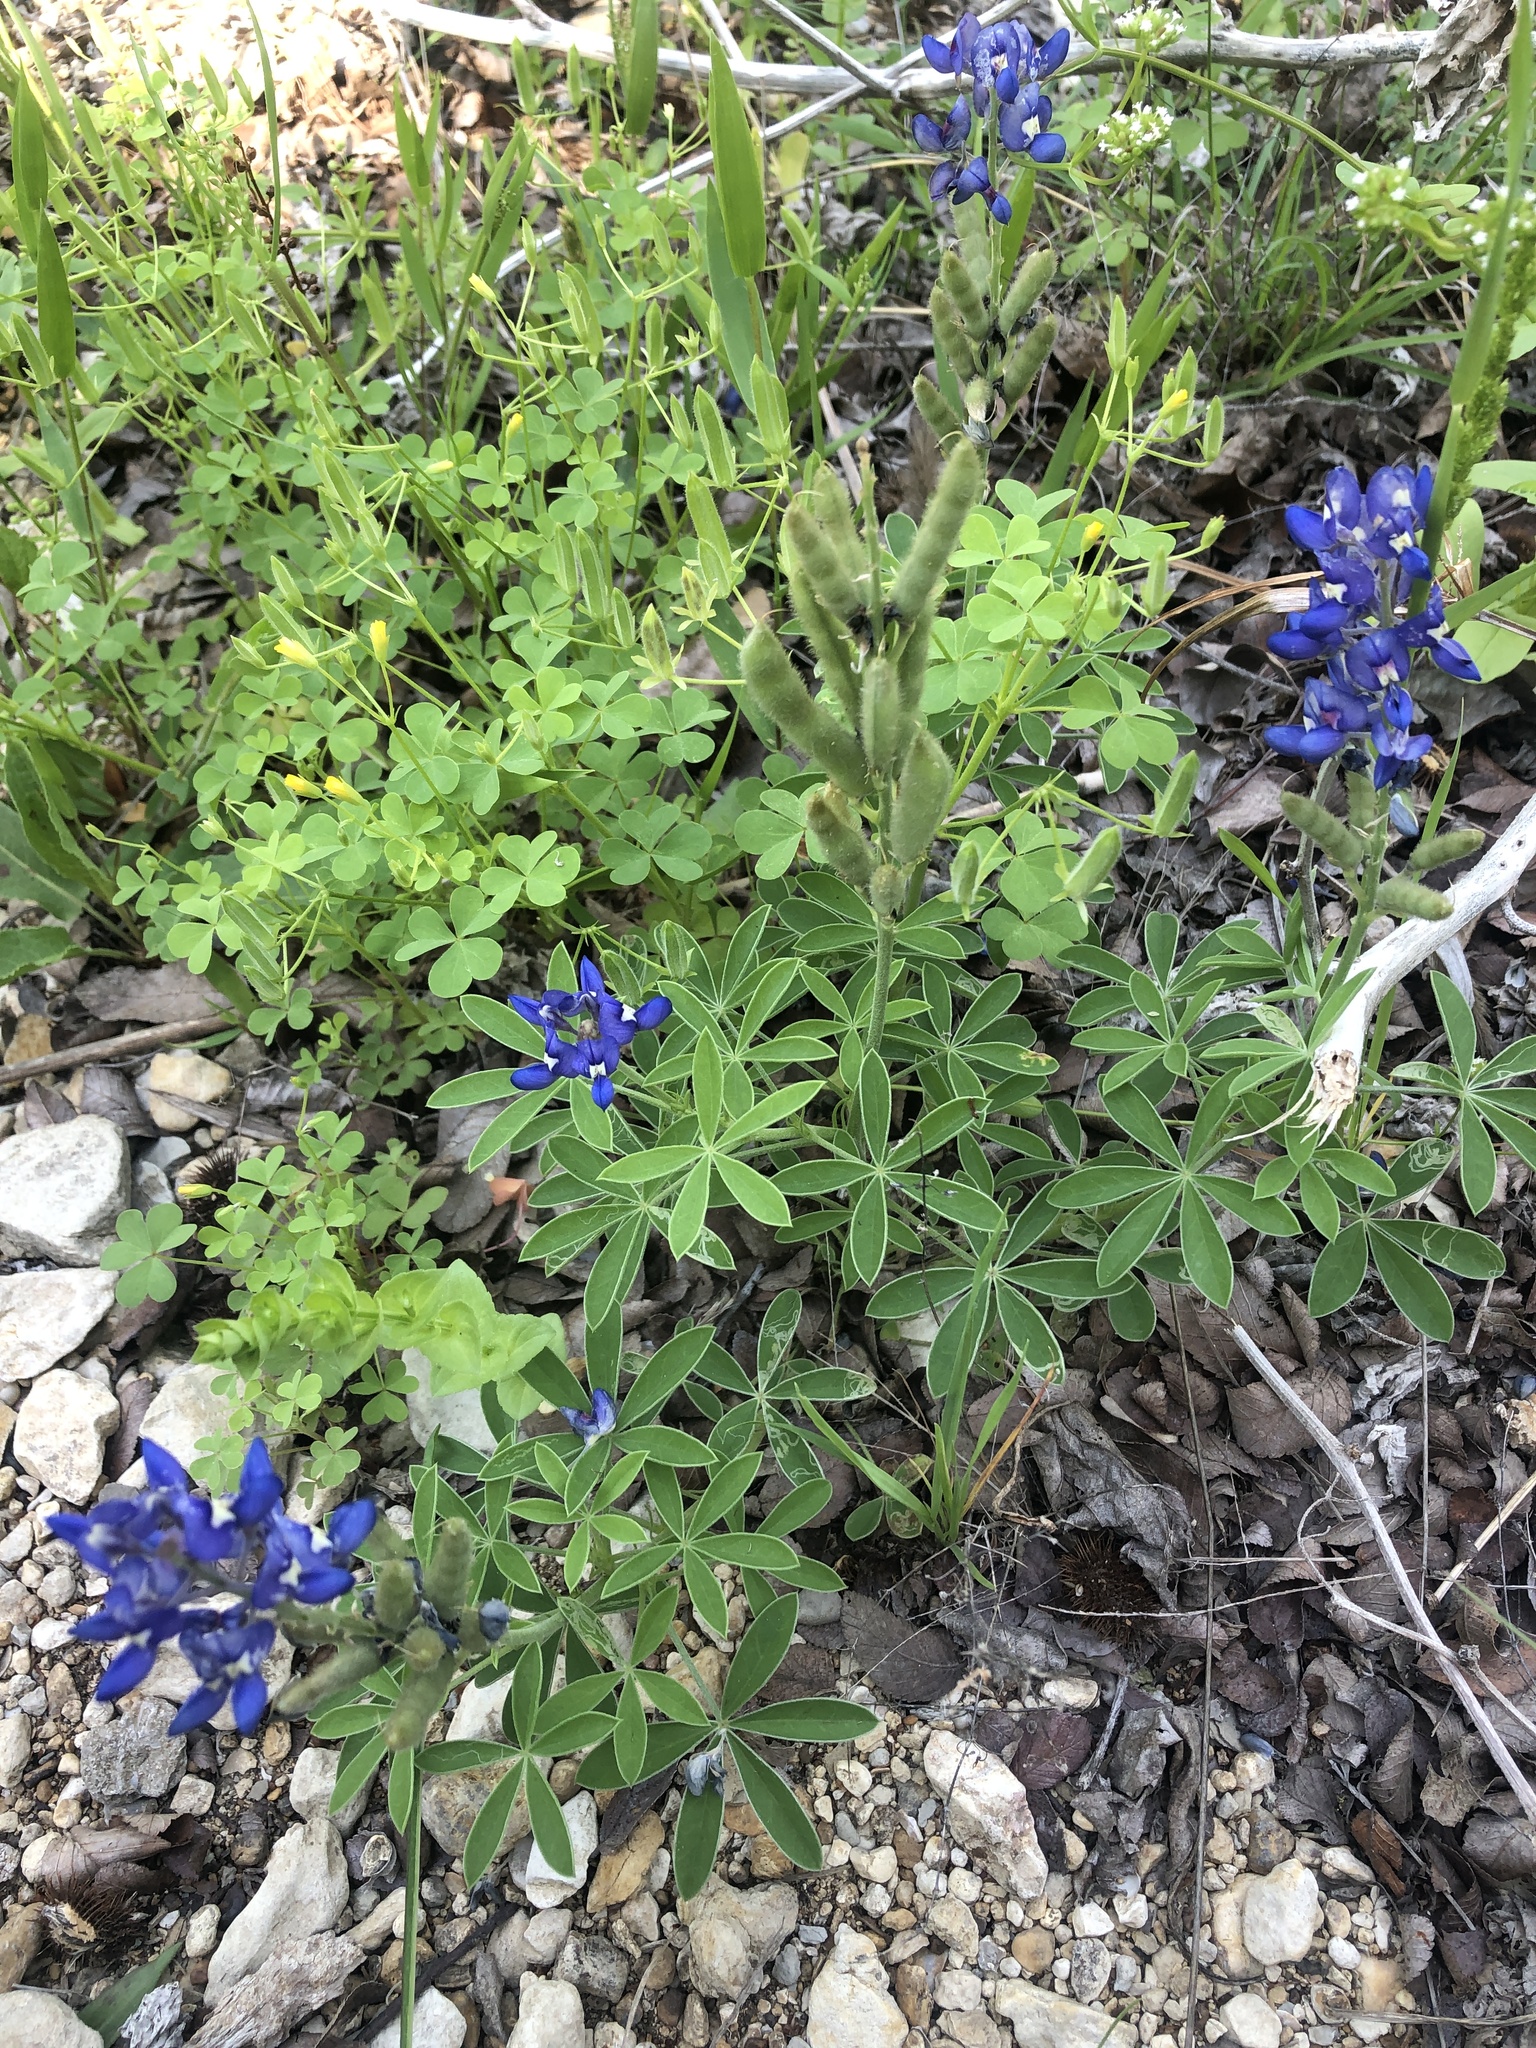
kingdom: Plantae
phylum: Tracheophyta
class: Magnoliopsida
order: Fabales
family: Fabaceae
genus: Lupinus
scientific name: Lupinus texensis
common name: Texas bluebonnet
